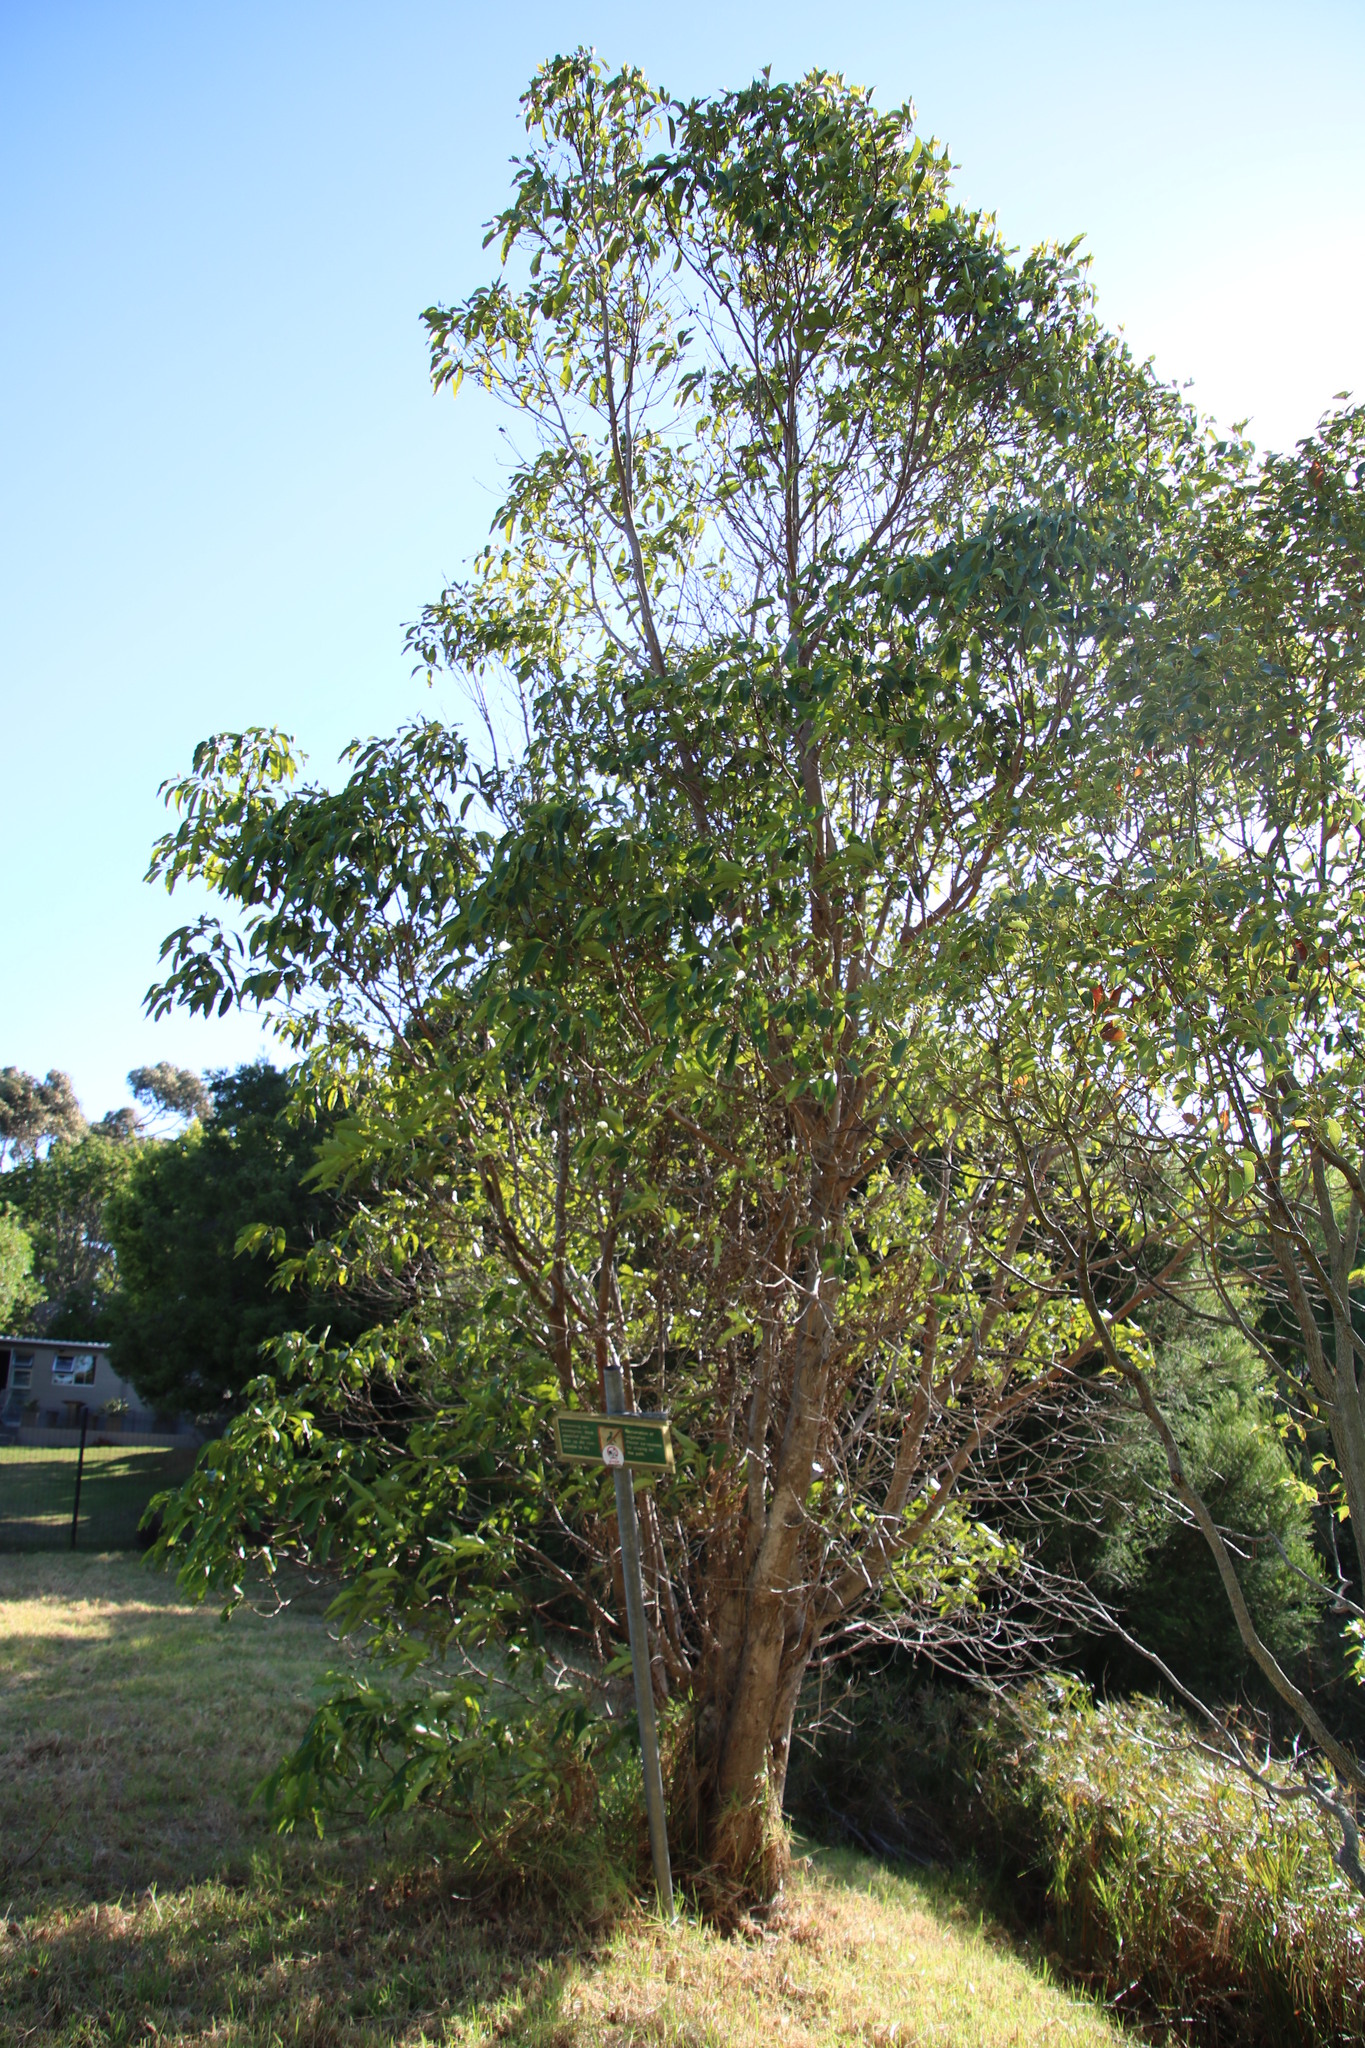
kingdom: Plantae
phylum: Tracheophyta
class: Magnoliopsida
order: Myrtales
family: Myrtaceae
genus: Lophostemon
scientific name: Lophostemon confertus
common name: Brisbane box
